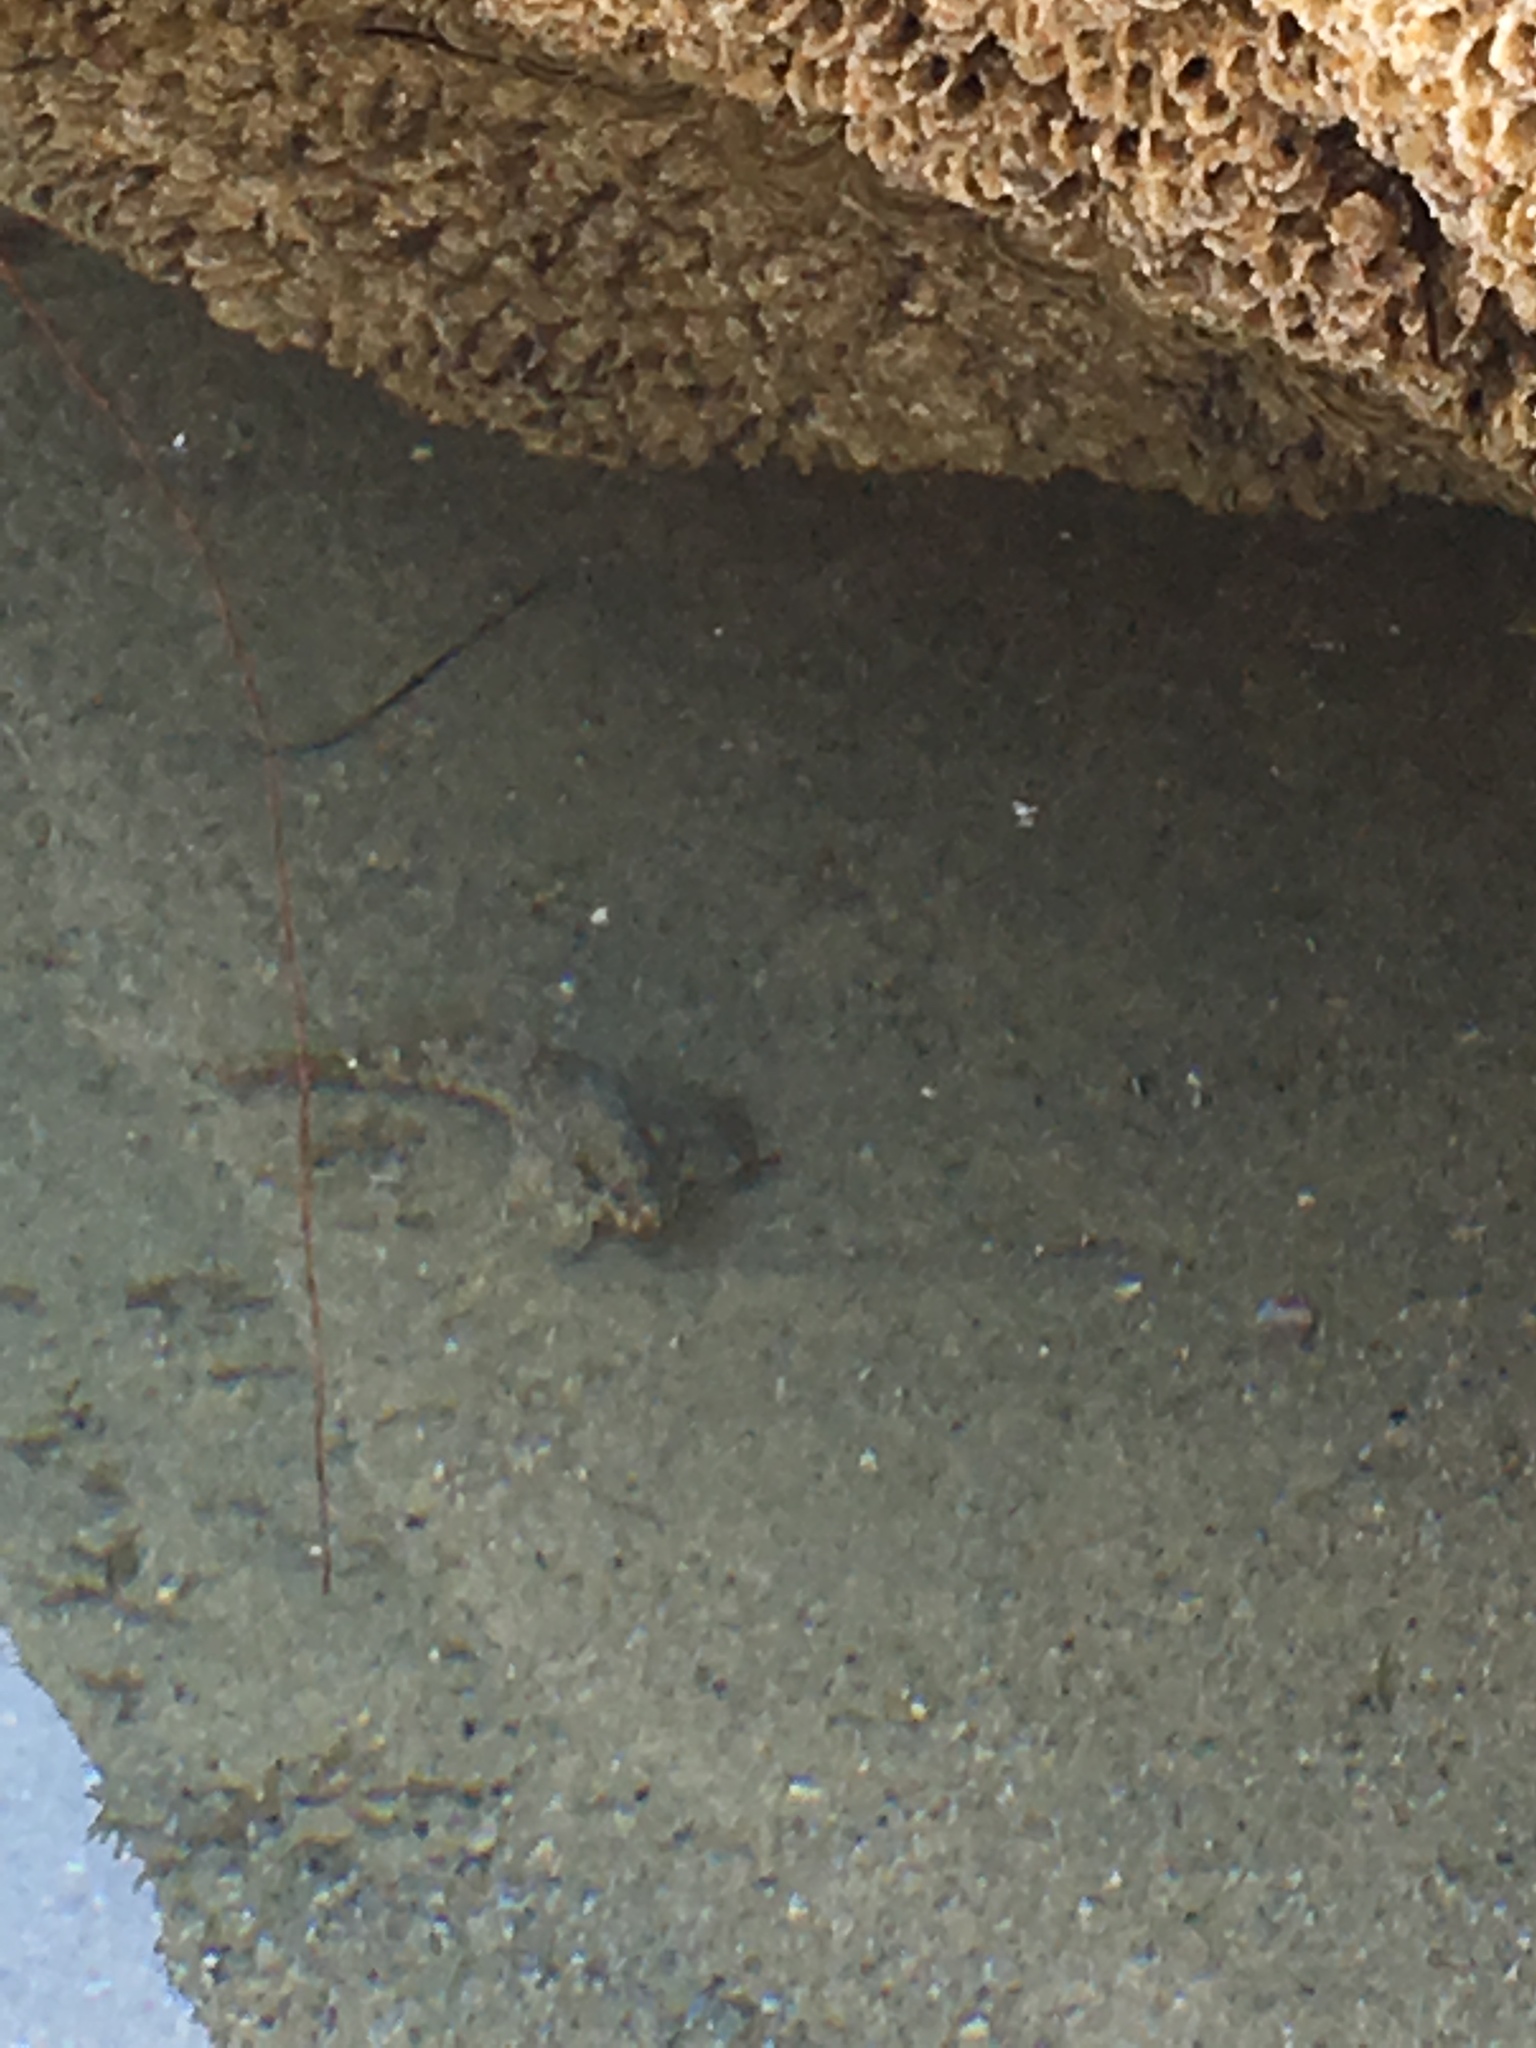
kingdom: Animalia
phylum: Chordata
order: Scorpaeniformes
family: Cottidae
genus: Clinocottus
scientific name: Clinocottus analis
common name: Woolly sculpin
